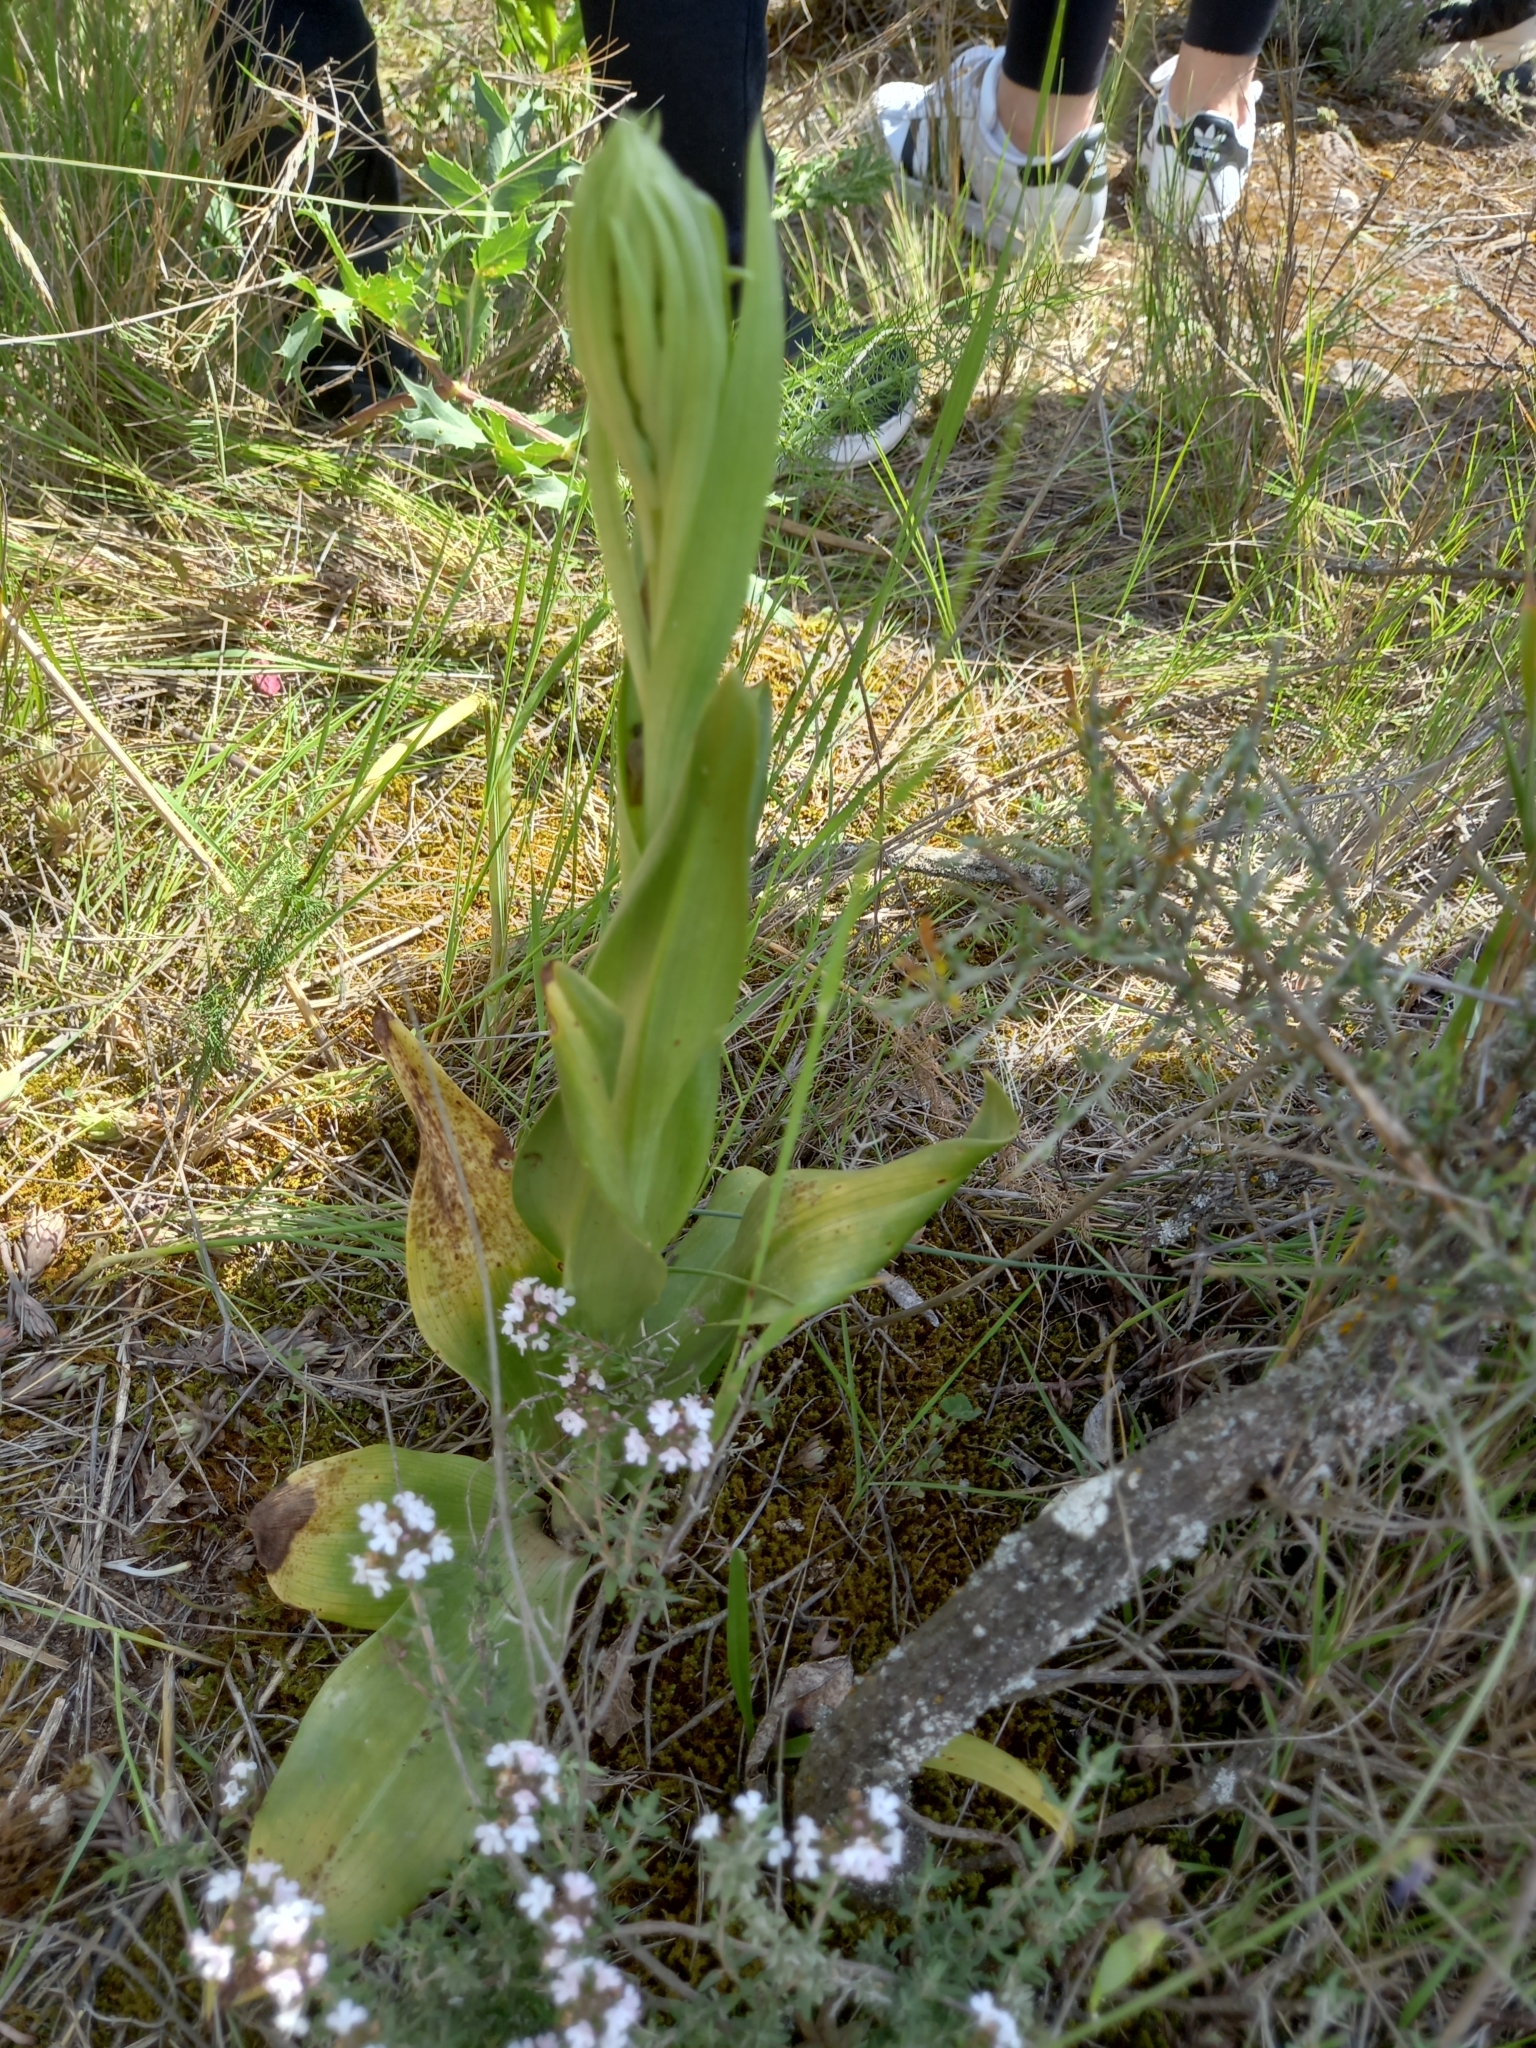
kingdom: Plantae
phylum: Tracheophyta
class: Liliopsida
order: Asparagales
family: Orchidaceae
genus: Himantoglossum
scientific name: Himantoglossum hircinum
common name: Lizard orchid
